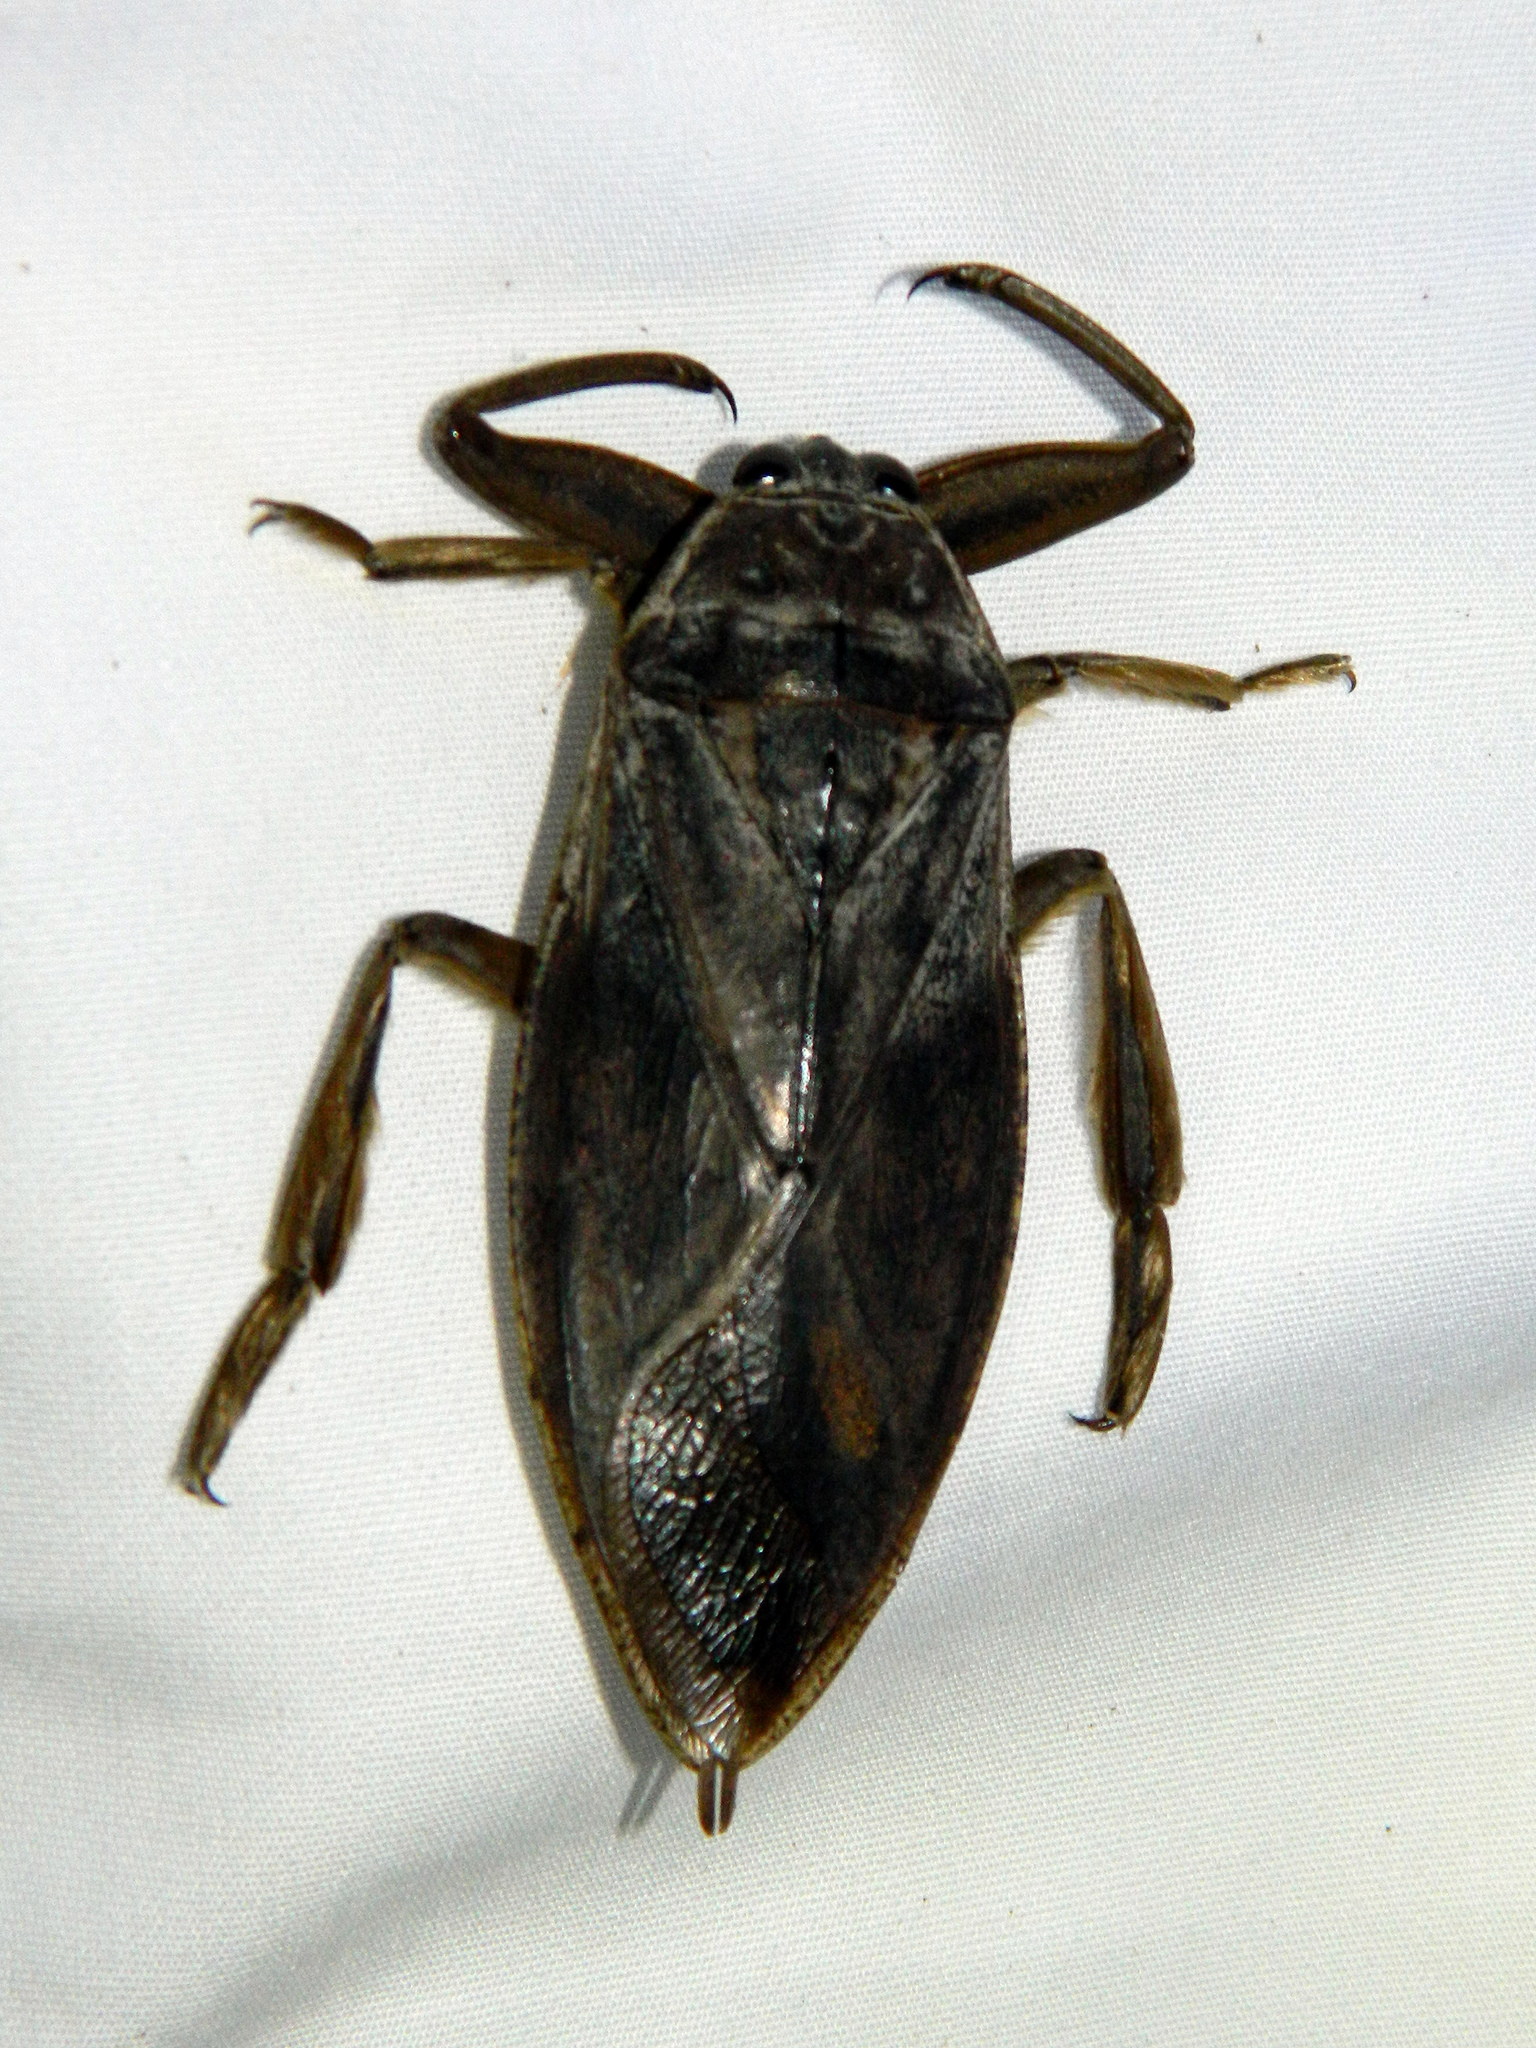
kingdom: Animalia
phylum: Arthropoda
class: Insecta
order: Hemiptera
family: Belostomatidae
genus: Lethocerus
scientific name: Lethocerus americanus
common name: Giant water bug
